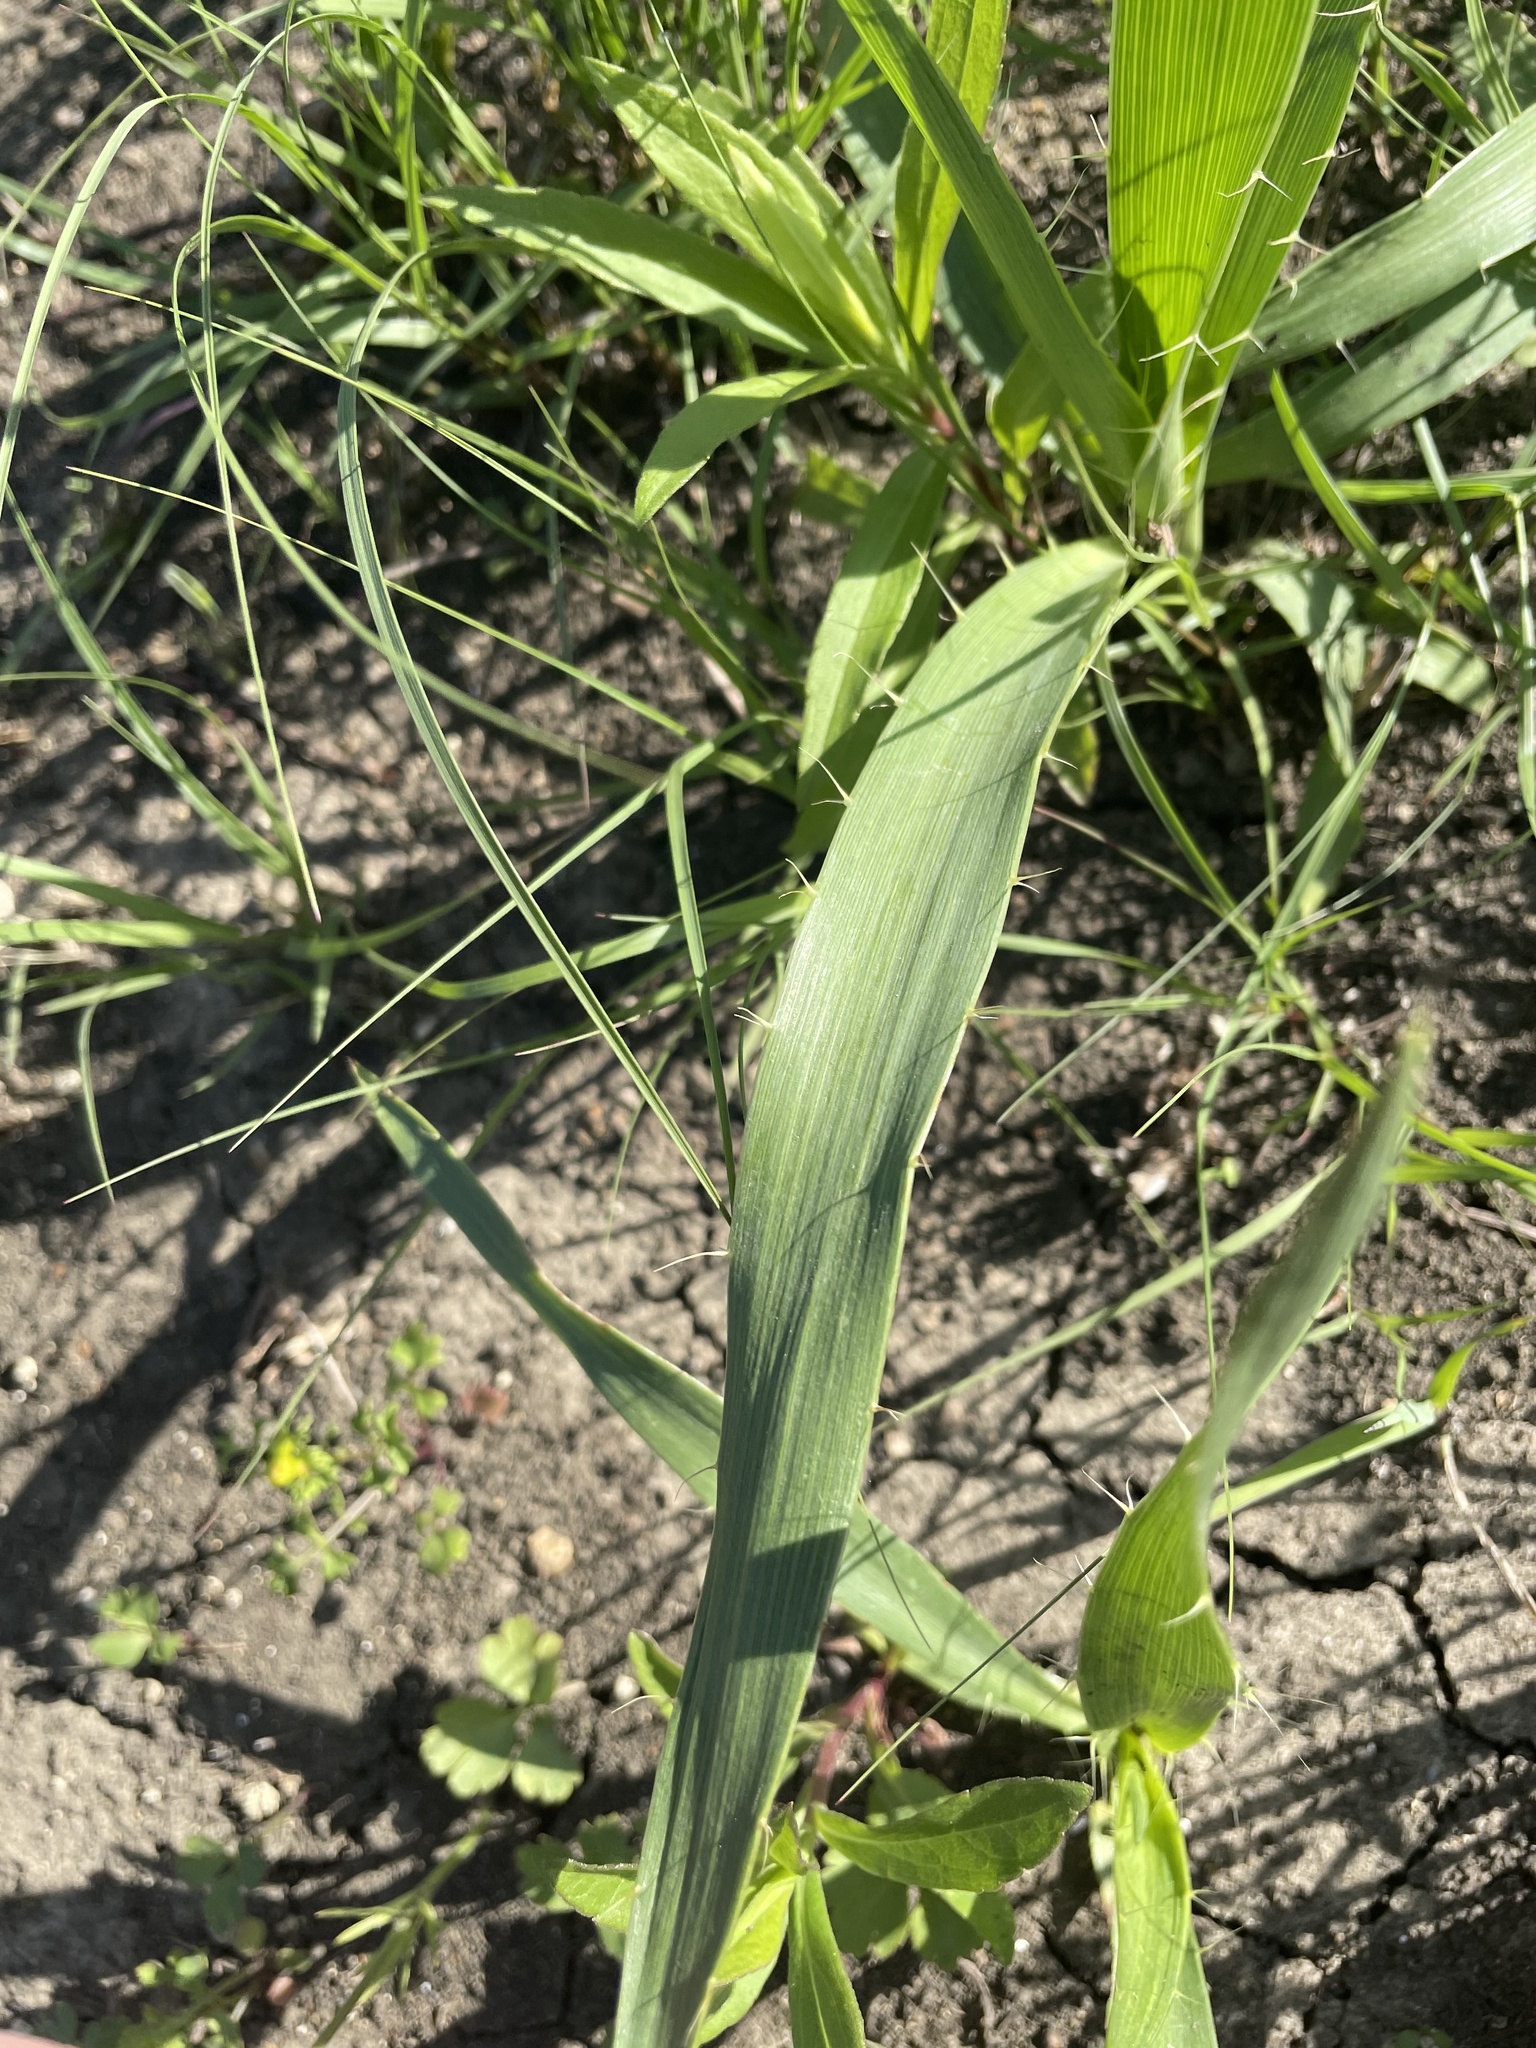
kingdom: Plantae
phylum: Tracheophyta
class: Magnoliopsida
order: Apiales
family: Apiaceae
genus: Eryngium
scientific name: Eryngium yuccifolium
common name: Button eryngo
